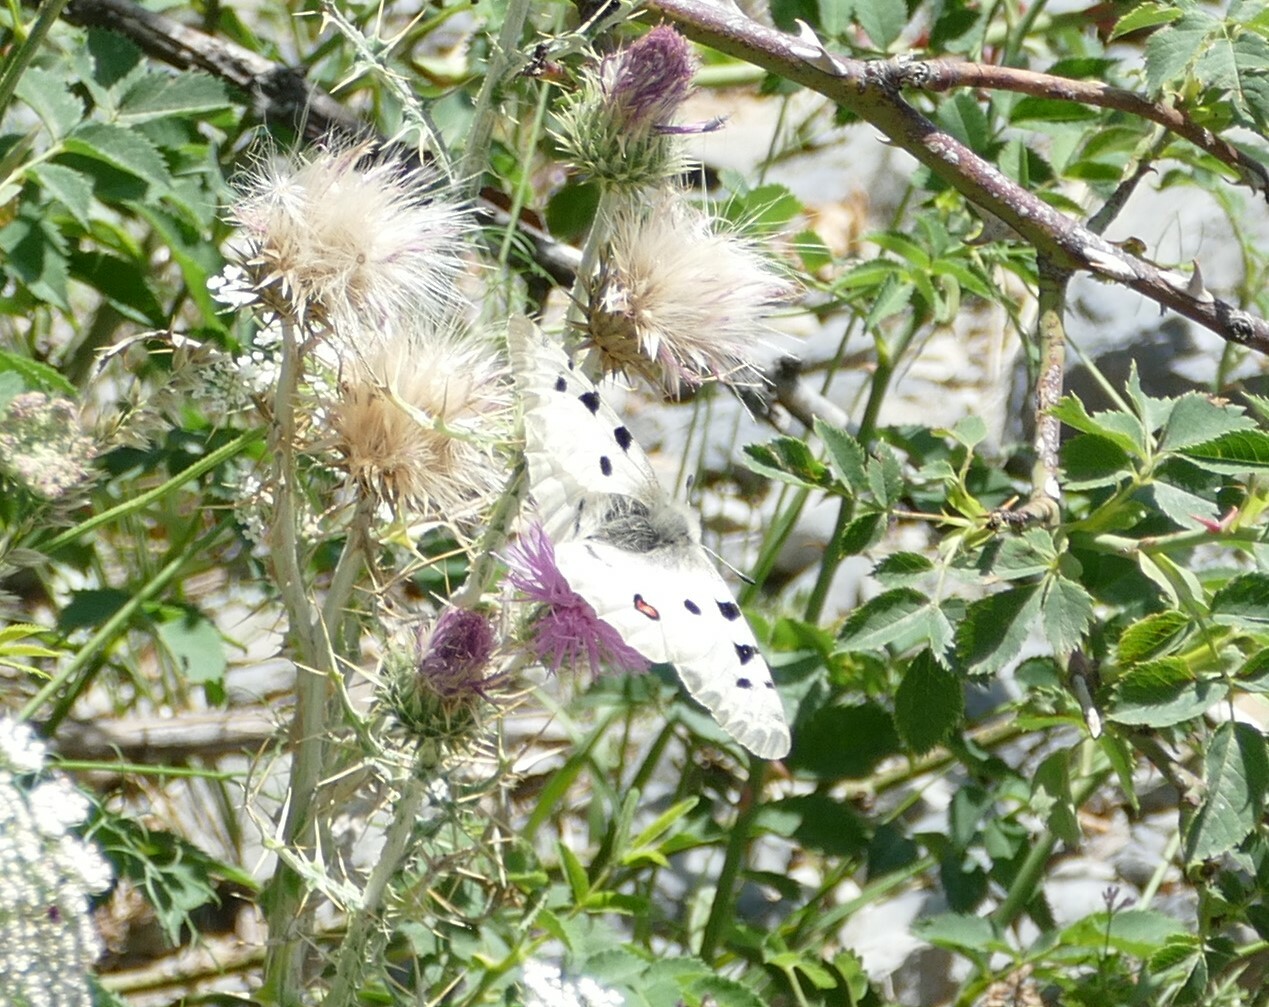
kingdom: Animalia
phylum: Arthropoda
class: Insecta
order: Lepidoptera
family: Papilionidae
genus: Parnassius
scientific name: Parnassius apollo
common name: Apollo
